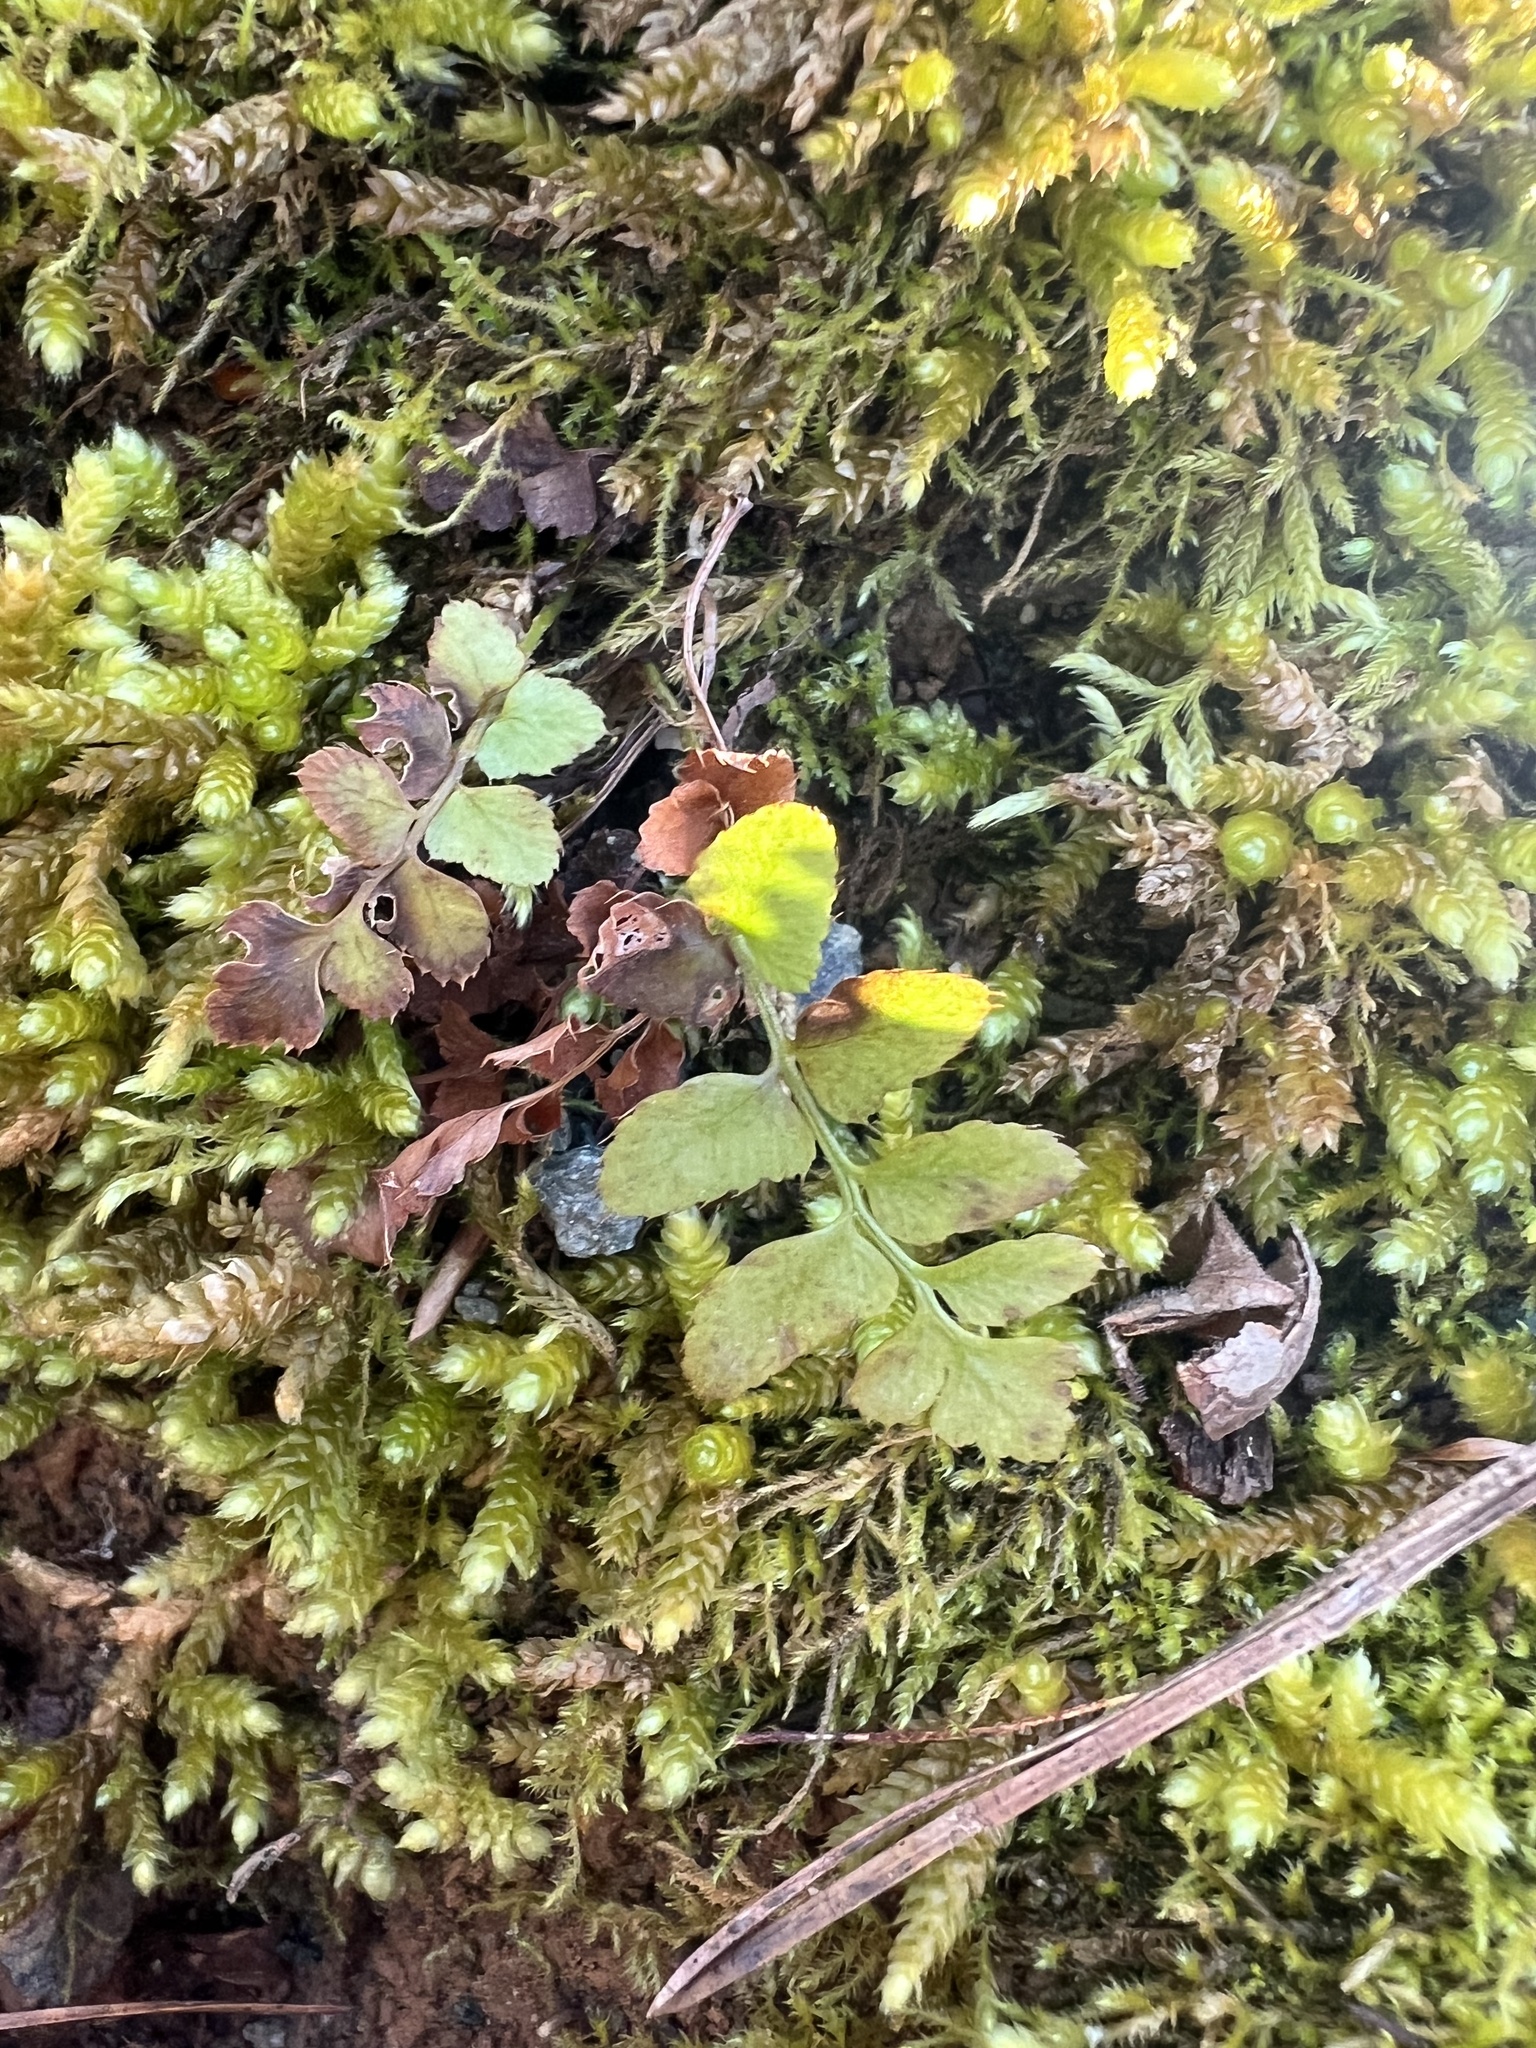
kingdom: Plantae
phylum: Tracheophyta
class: Polypodiopsida
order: Polypodiales
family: Dryopteridaceae
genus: Polystichum
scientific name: Polystichum acrostichoides
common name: Christmas fern
